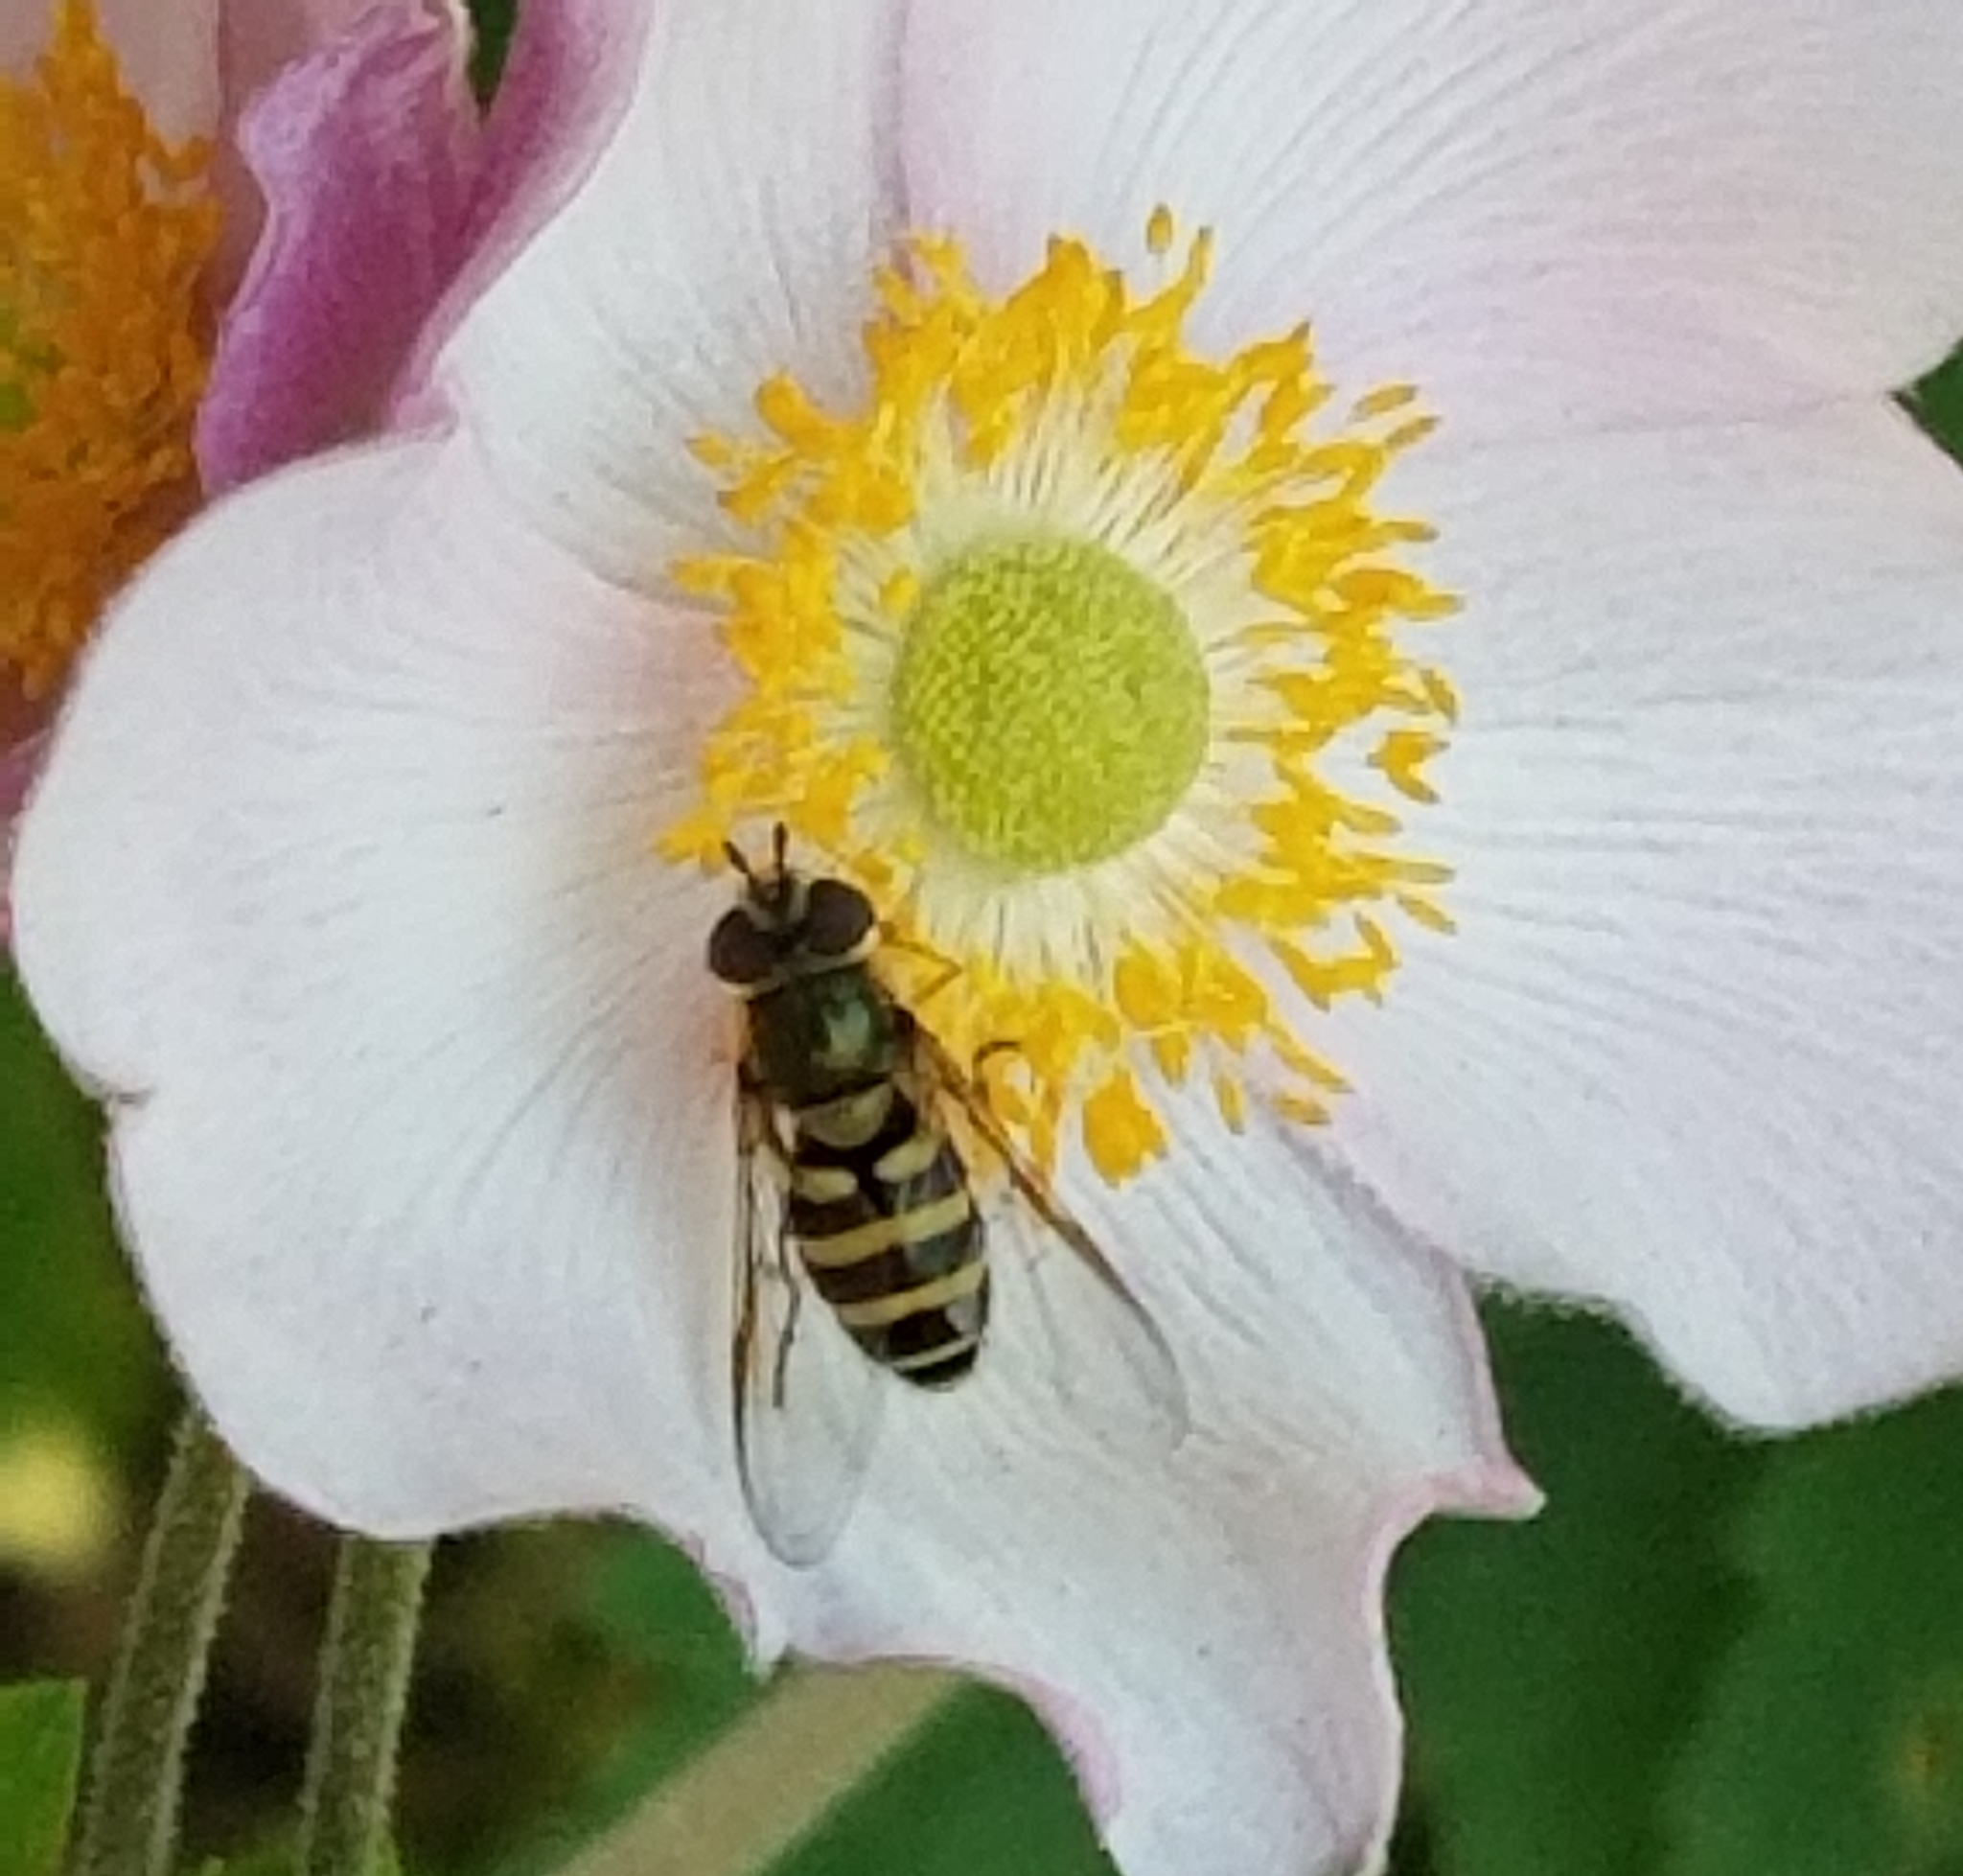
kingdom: Animalia
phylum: Arthropoda
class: Insecta
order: Diptera
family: Syrphidae
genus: Syrphus
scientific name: Syrphus
